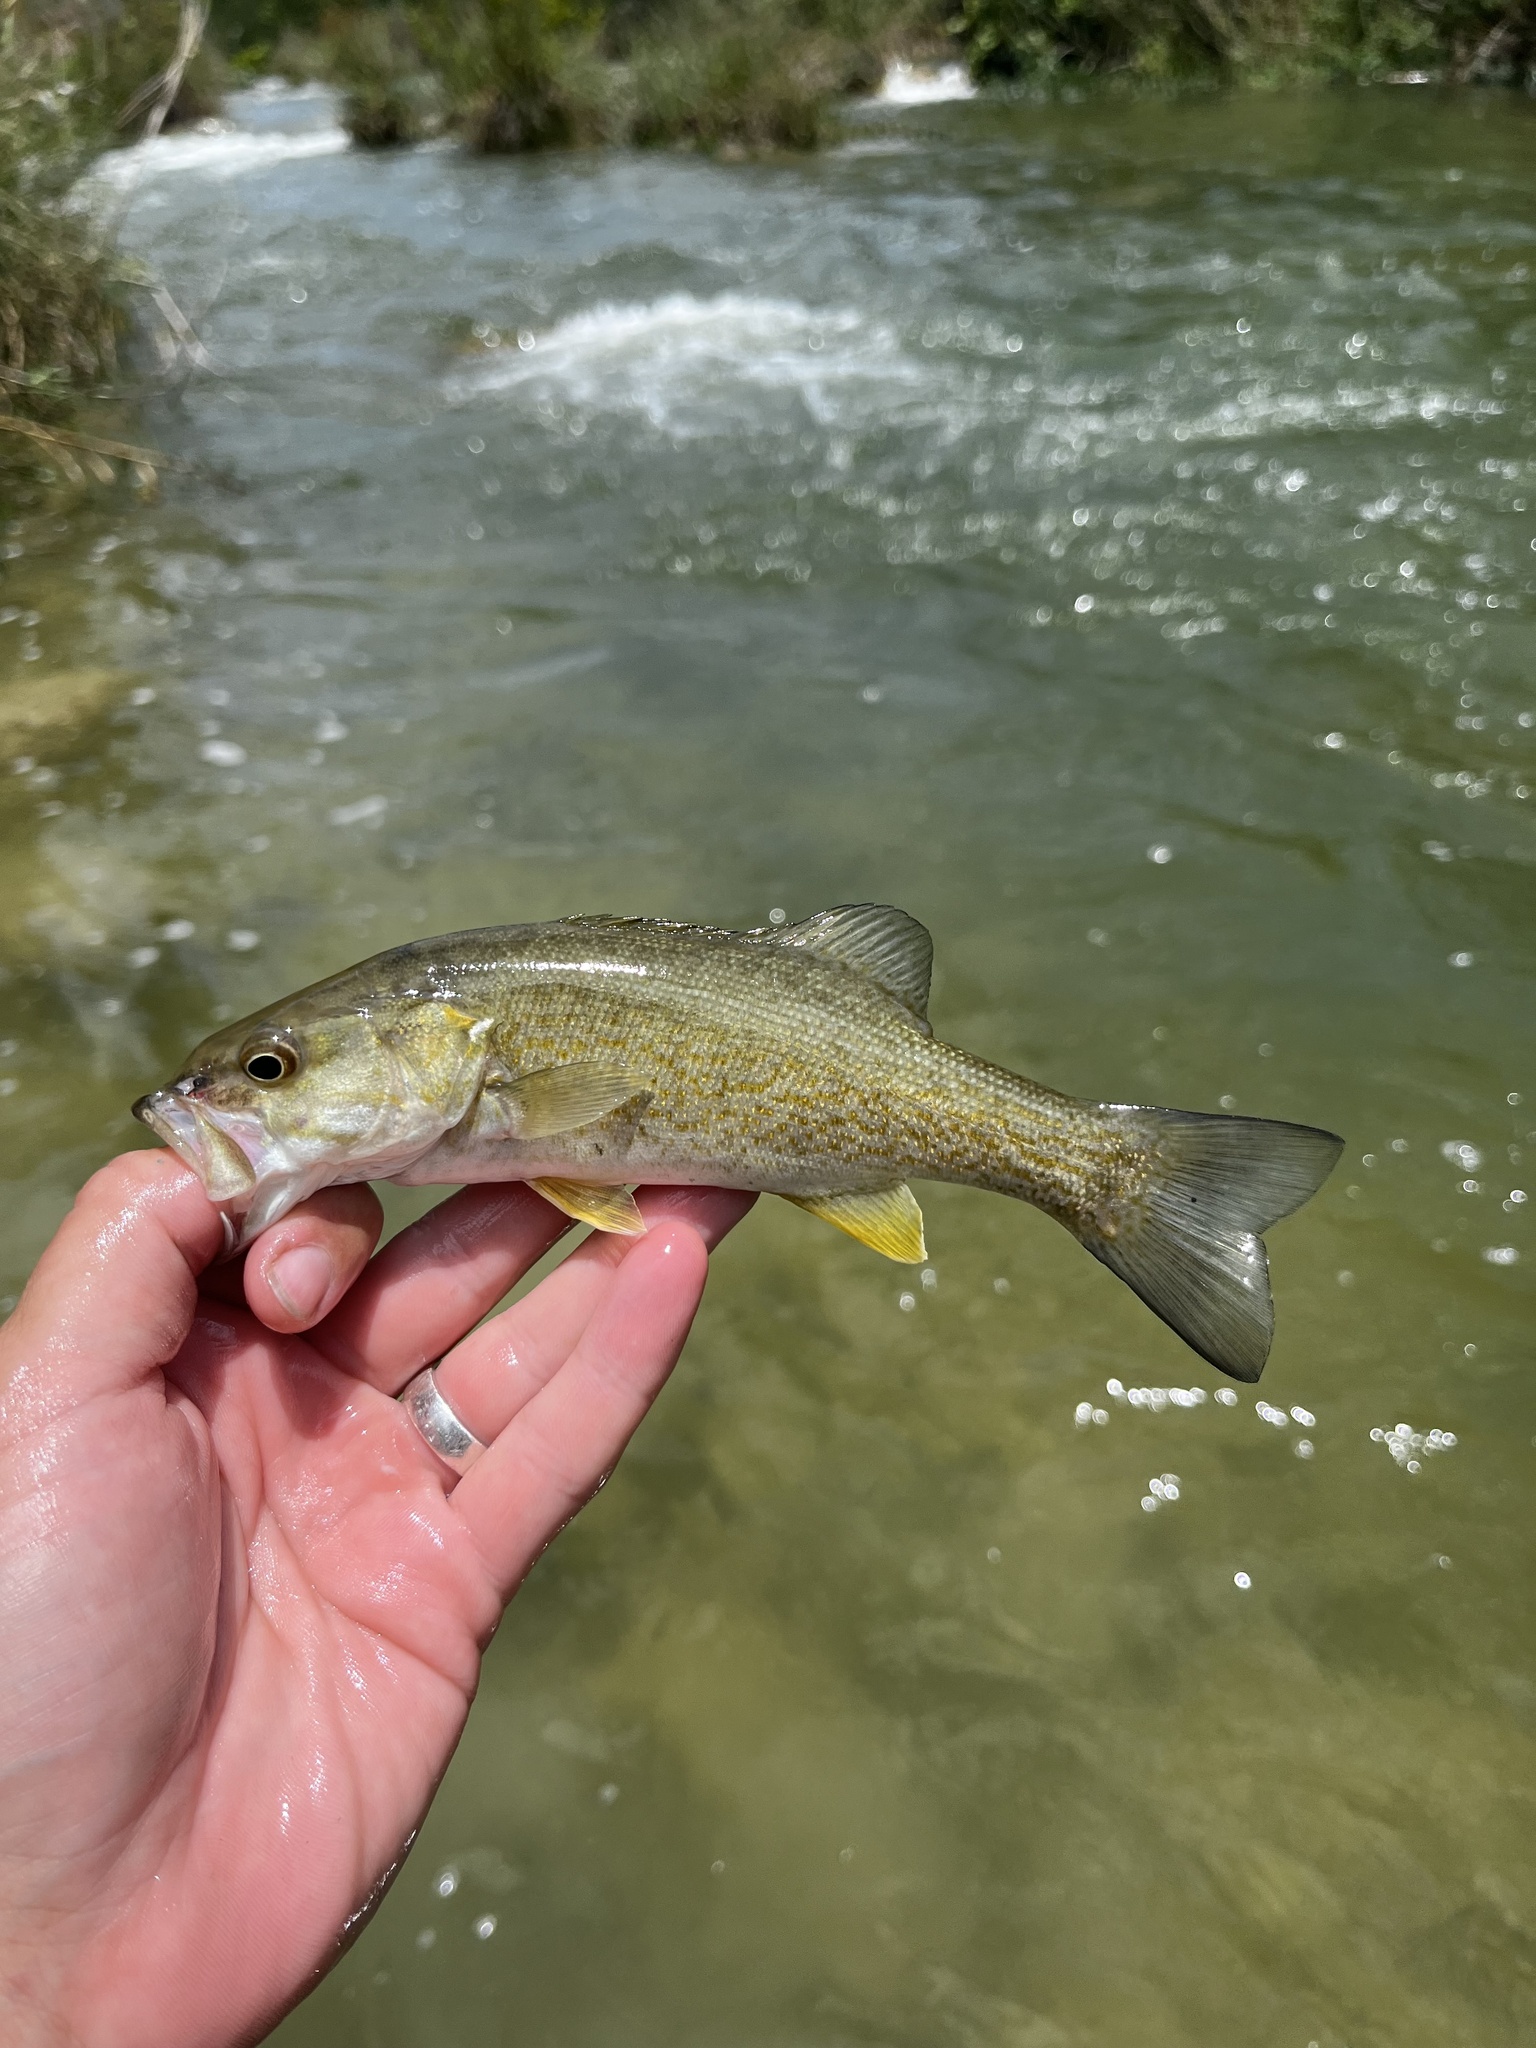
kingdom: Animalia
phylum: Chordata
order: Perciformes
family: Centrarchidae
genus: Micropterus
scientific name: Micropterus dolomieu
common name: Smallmouth bass
